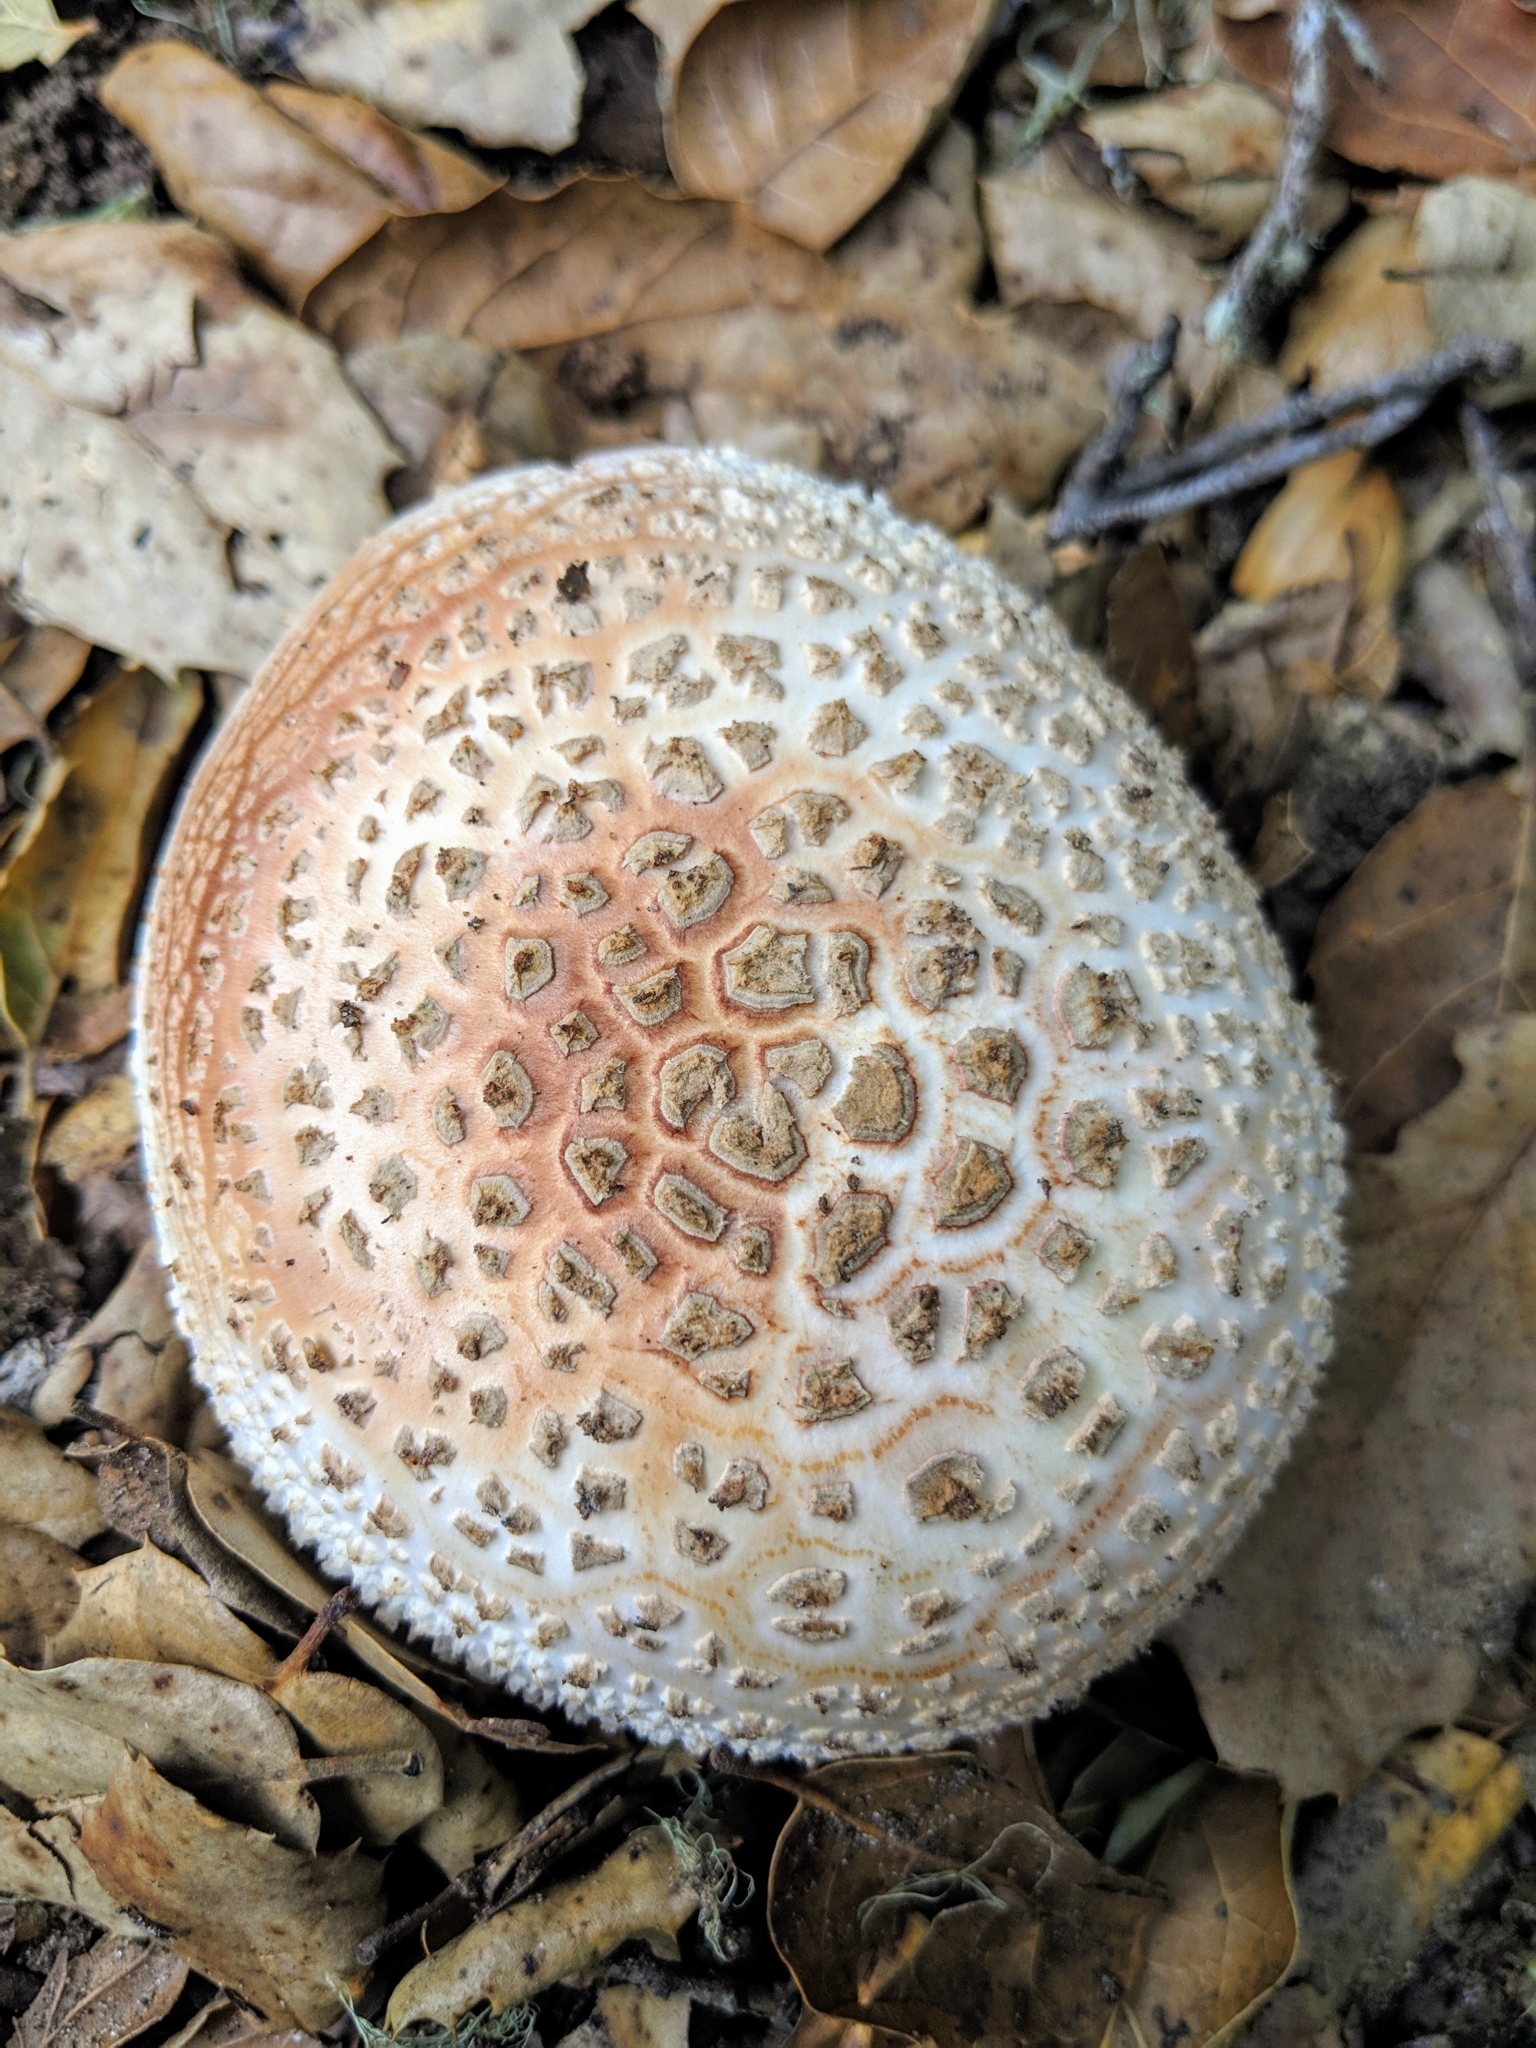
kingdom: Fungi
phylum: Basidiomycota
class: Agaricomycetes
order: Agaricales
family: Amanitaceae
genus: Amanita
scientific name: Amanita novinupta
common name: Blushing bride
